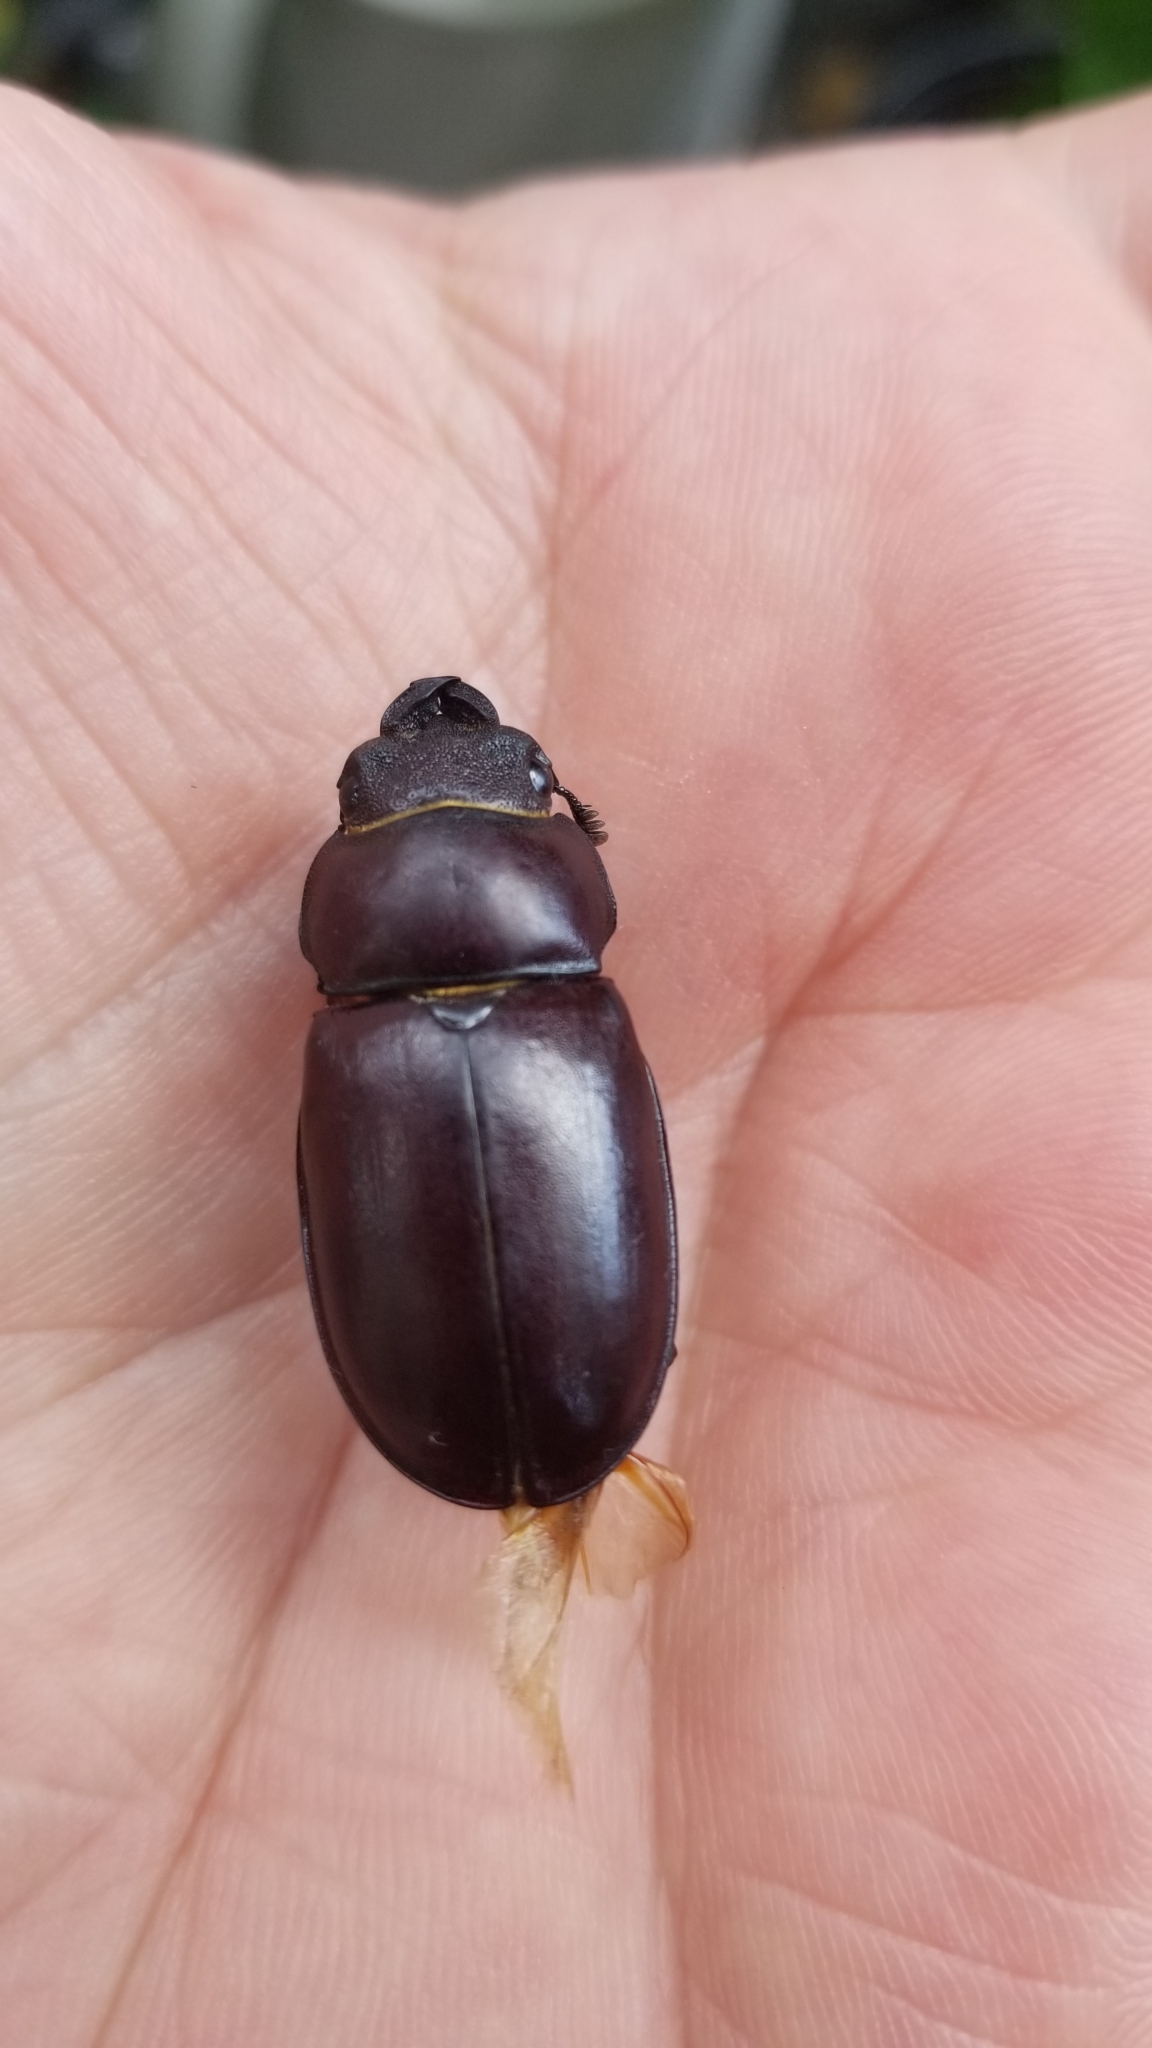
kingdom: Animalia
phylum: Arthropoda
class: Insecta
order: Coleoptera
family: Lucanidae
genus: Lucanus
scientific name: Lucanus capreolus
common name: Stag beetle
